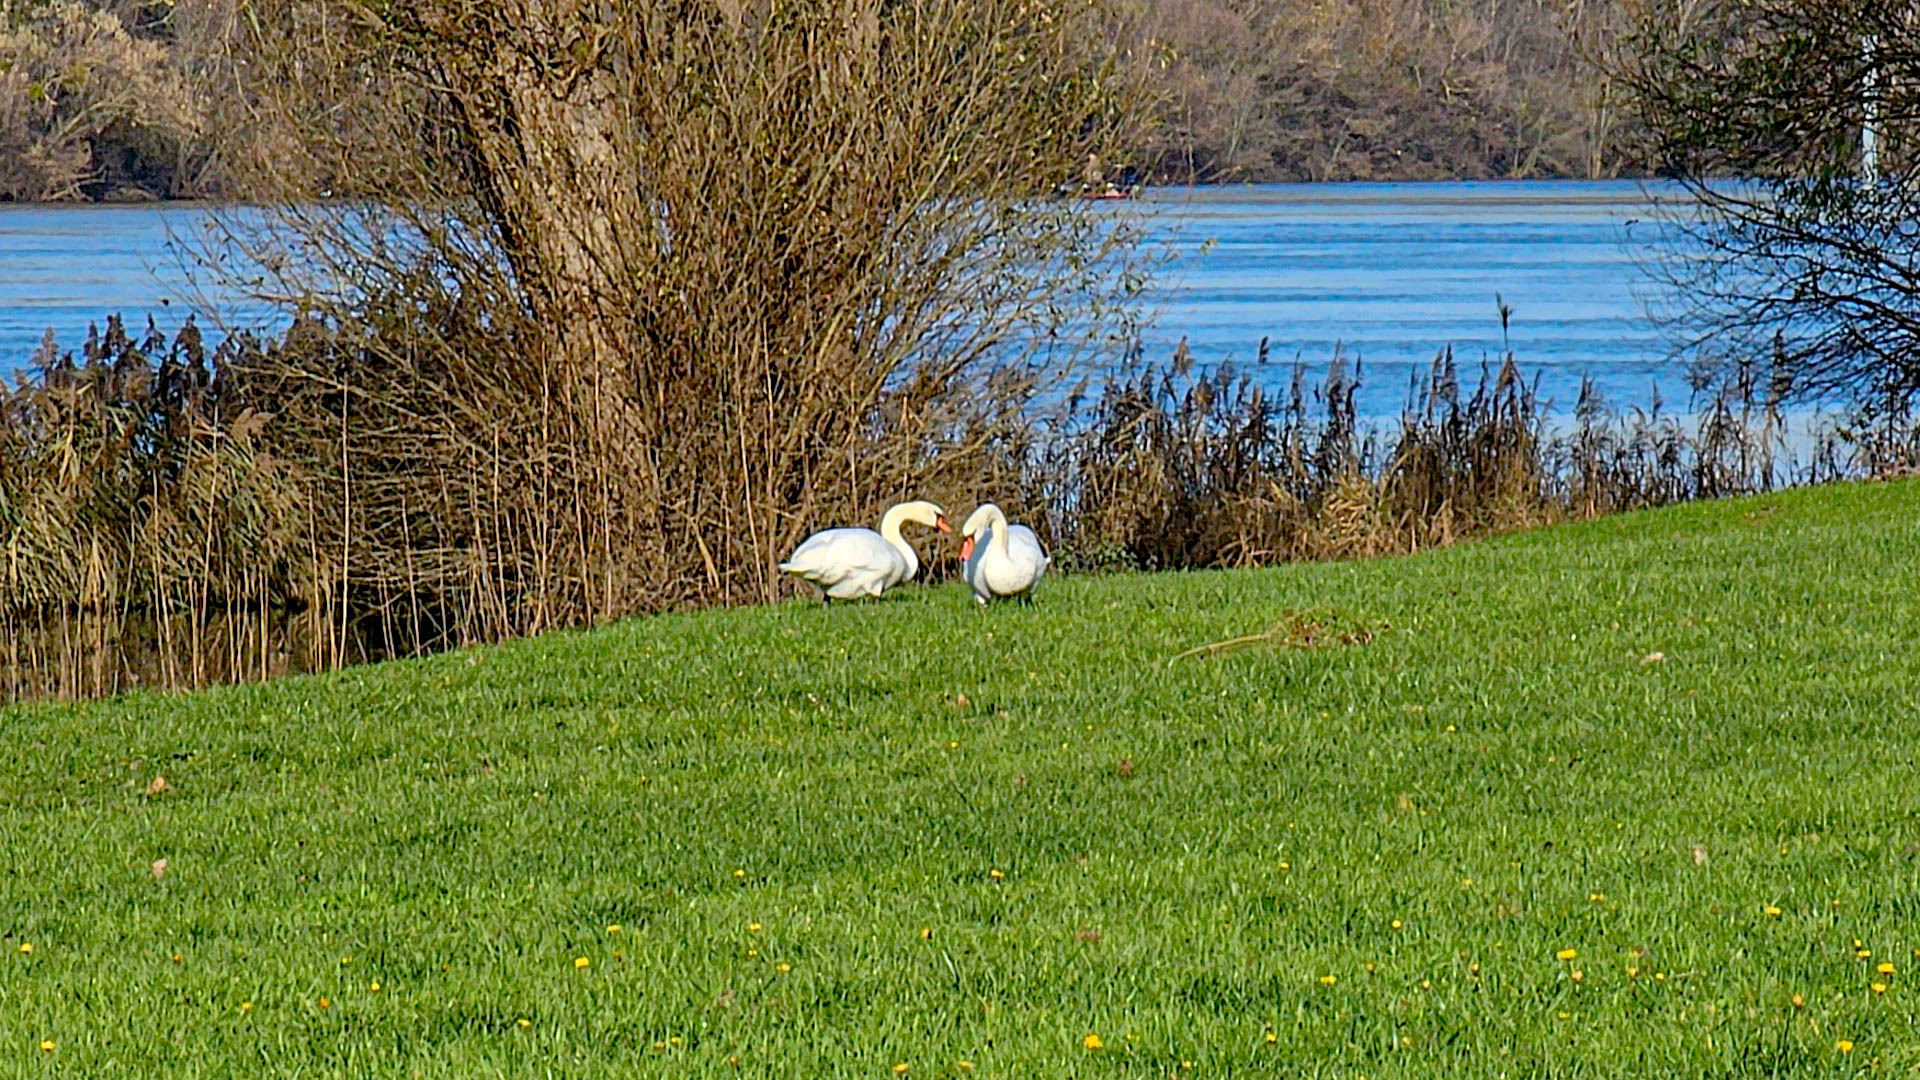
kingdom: Animalia
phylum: Chordata
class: Aves
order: Anseriformes
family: Anatidae
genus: Cygnus
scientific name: Cygnus olor
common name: Mute swan
